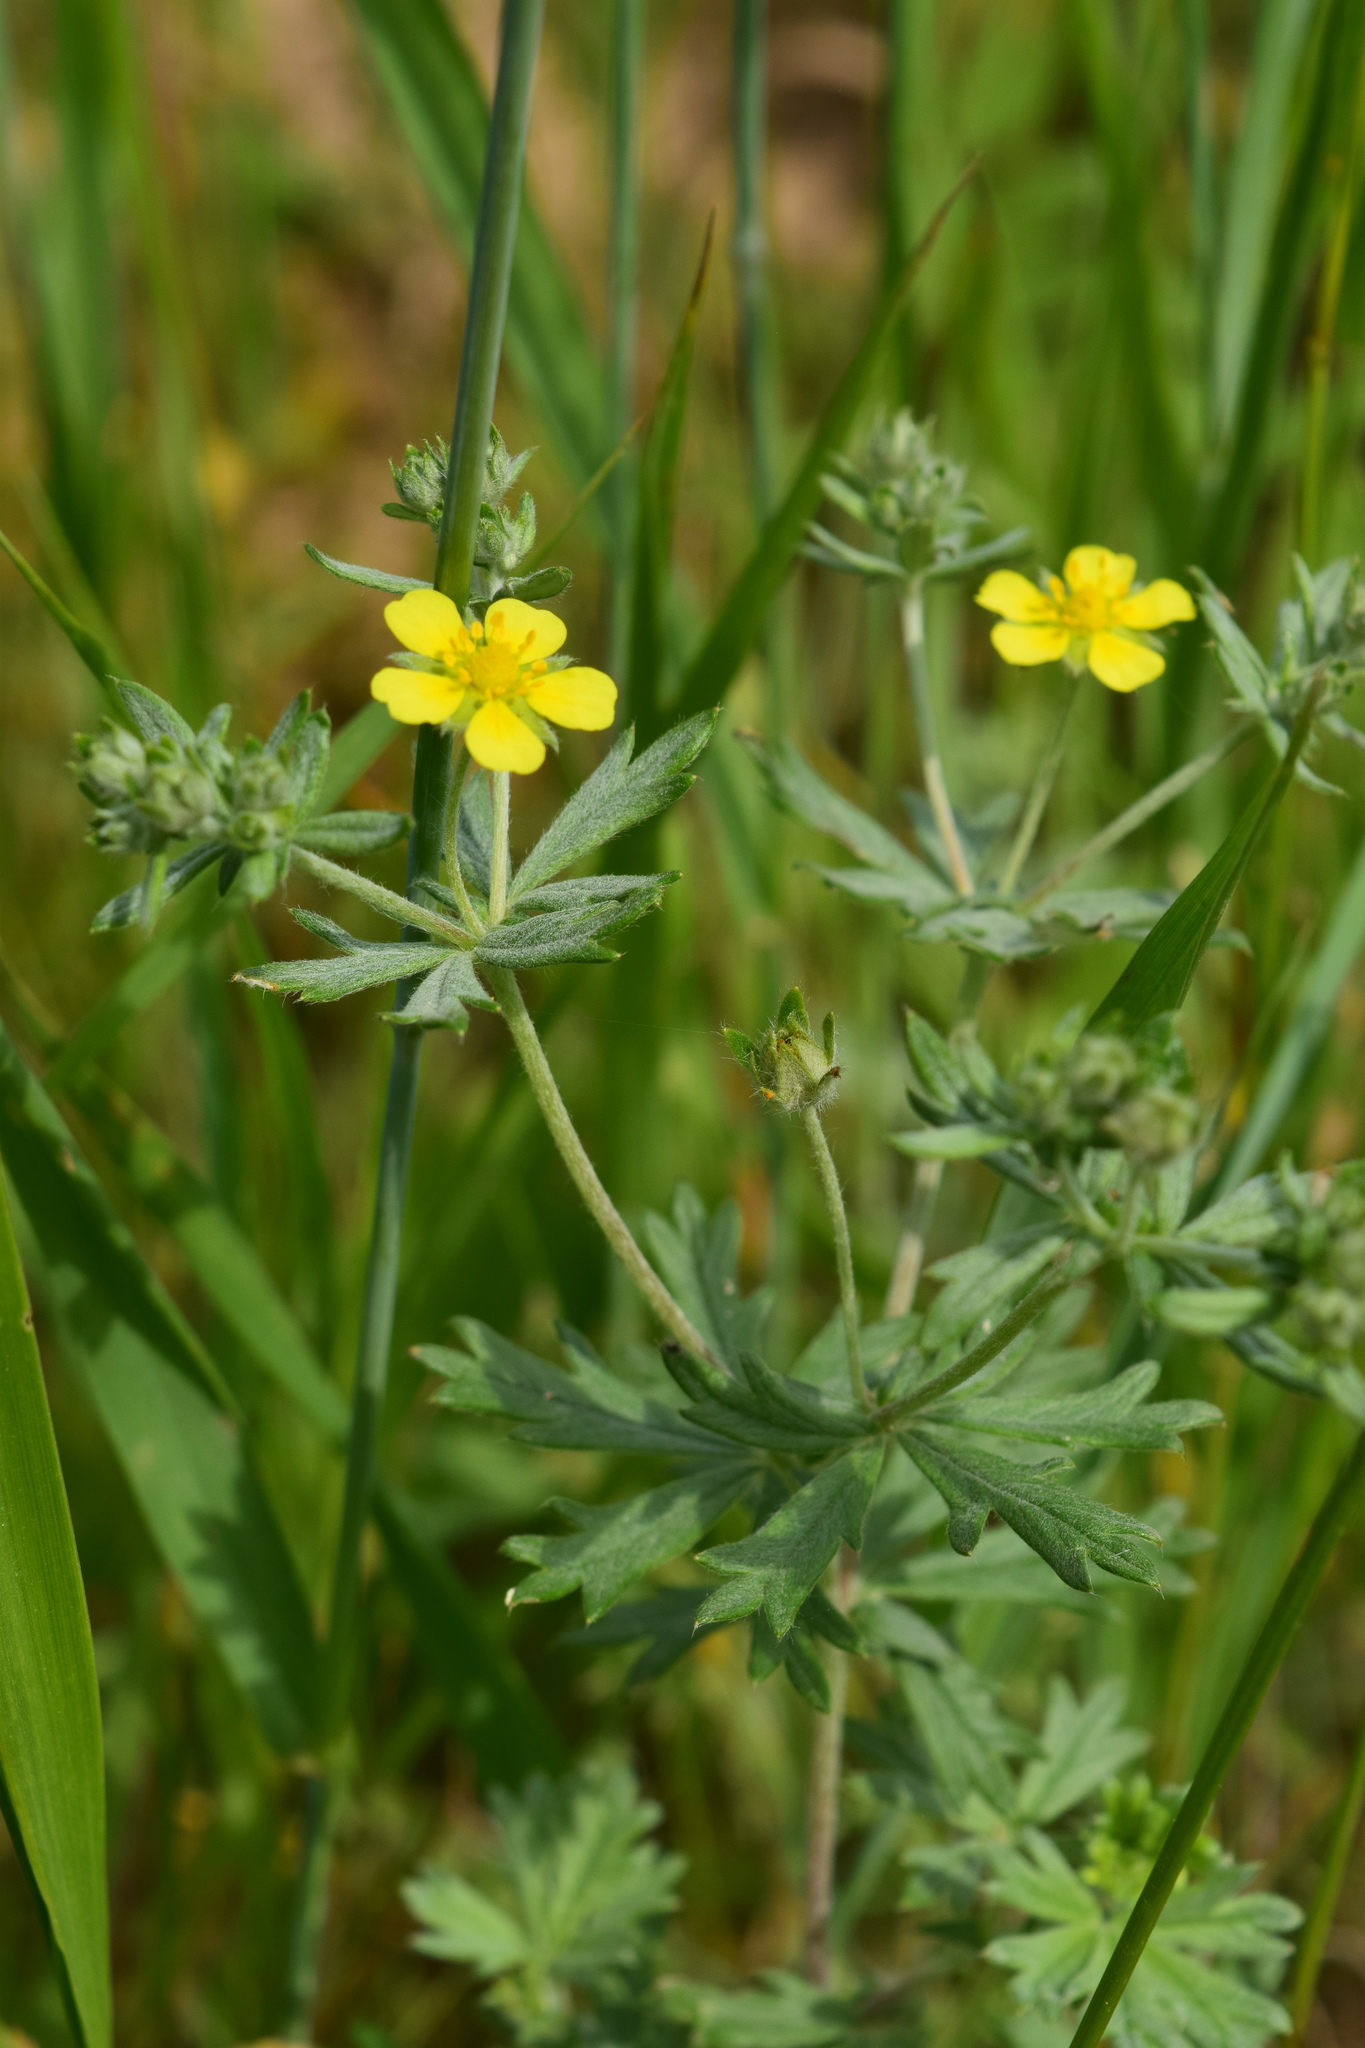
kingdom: Plantae
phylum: Tracheophyta
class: Magnoliopsida
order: Rosales
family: Rosaceae
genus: Potentilla
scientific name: Potentilla argentea
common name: Hoary cinquefoil
